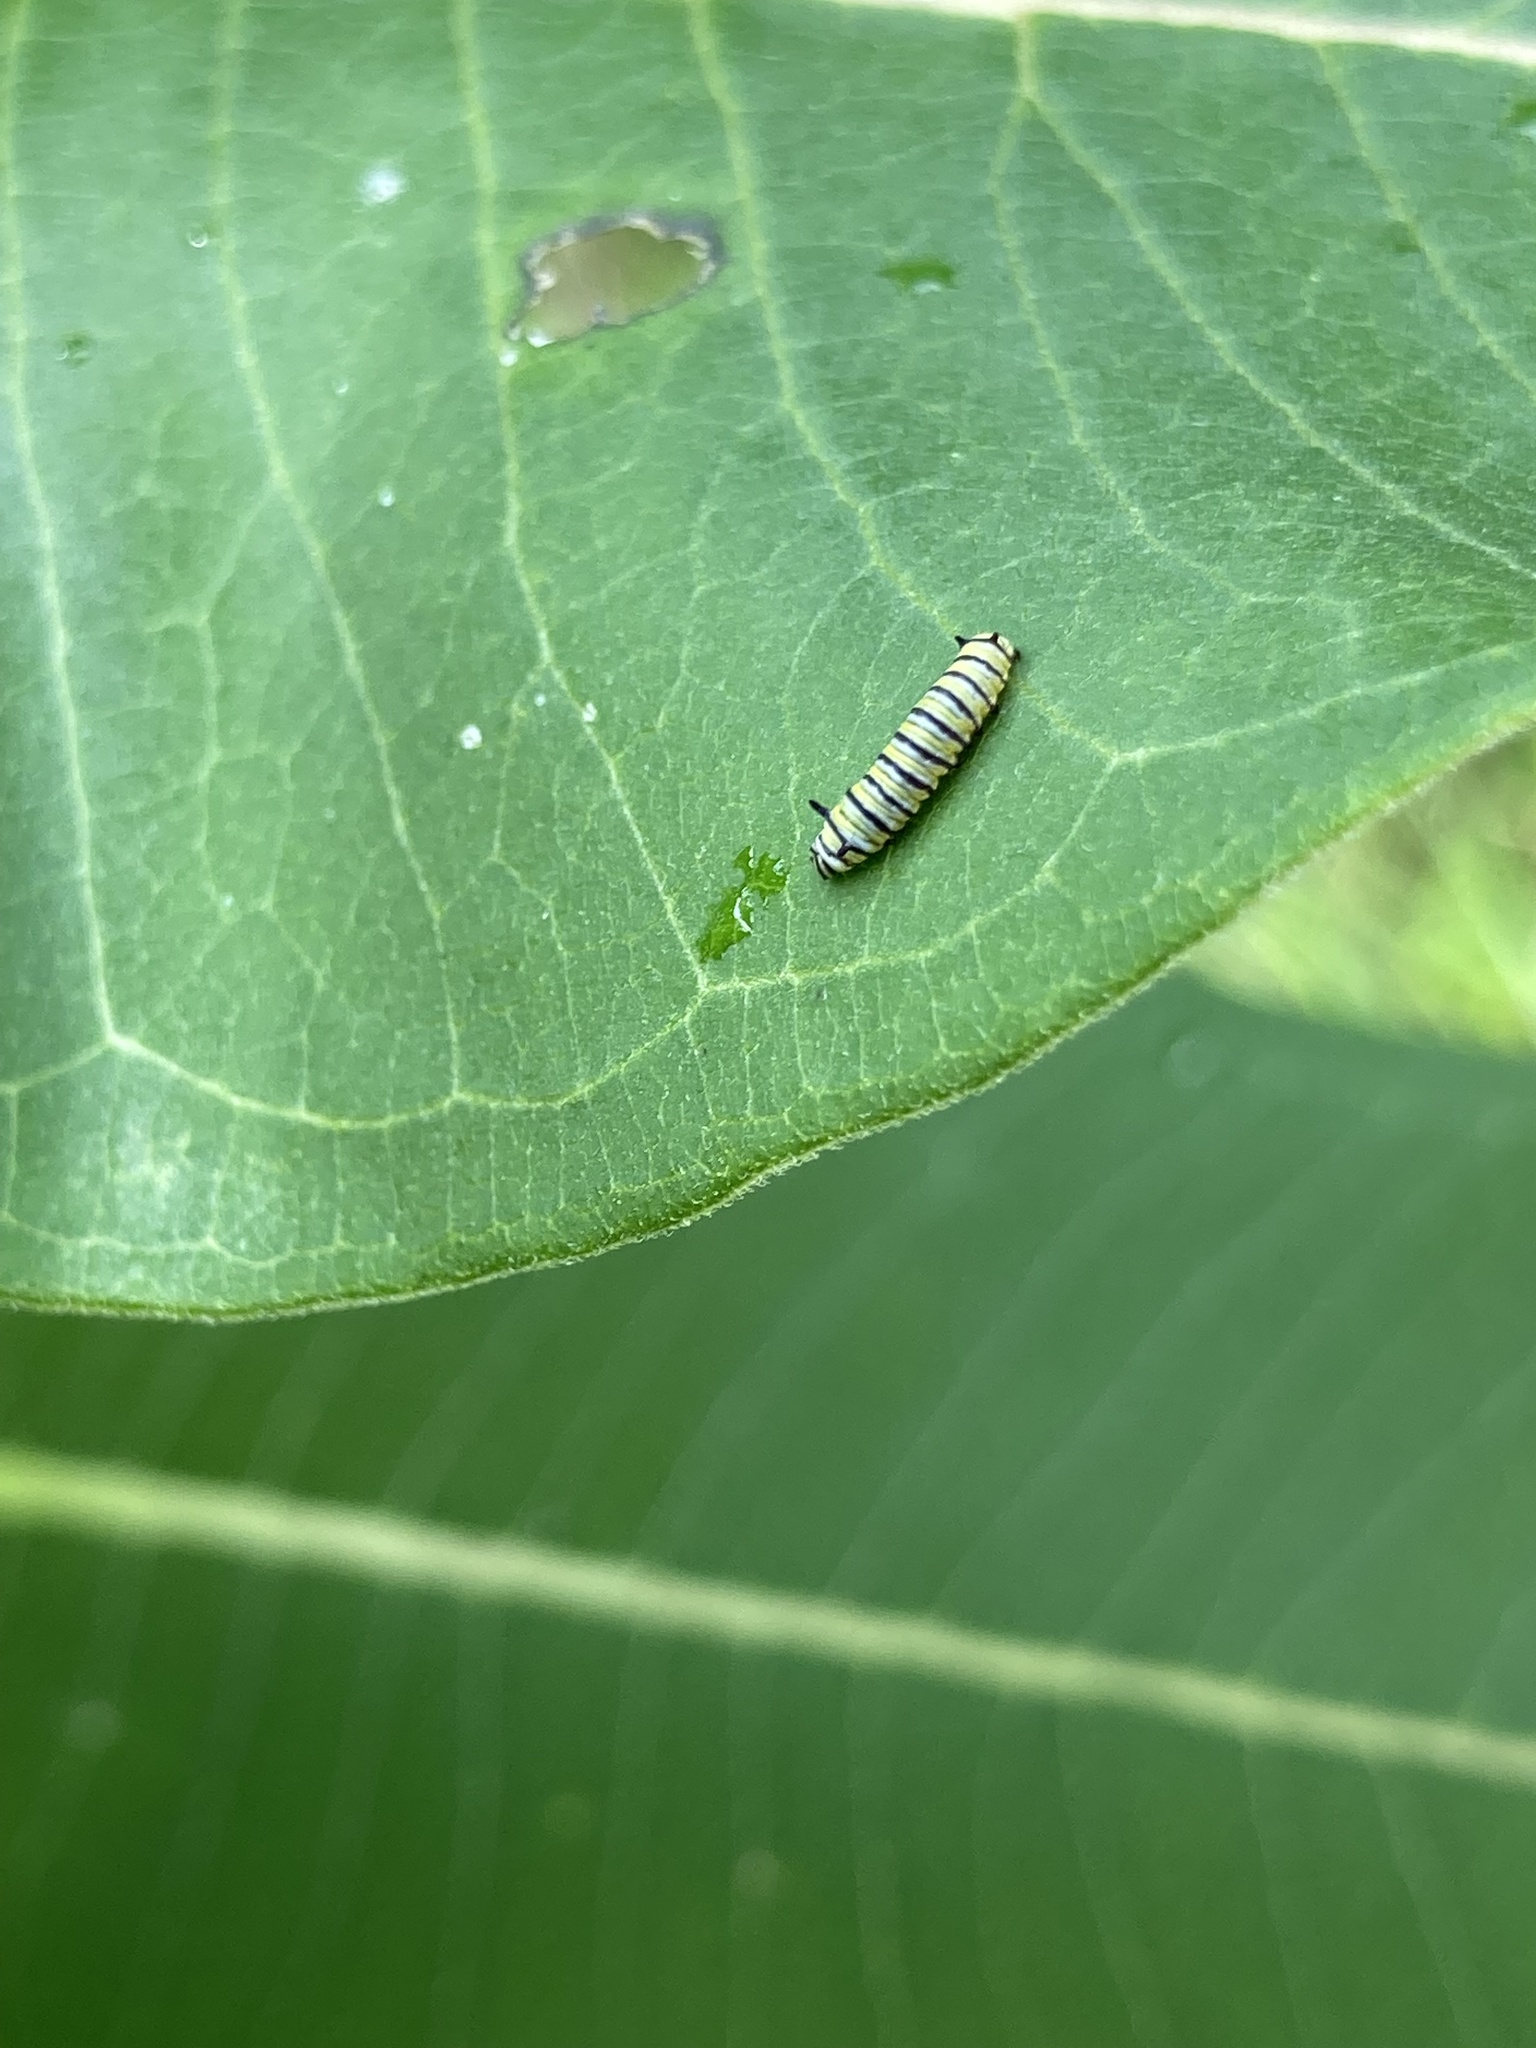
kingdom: Animalia
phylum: Arthropoda
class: Insecta
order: Lepidoptera
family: Nymphalidae
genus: Danaus
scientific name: Danaus plexippus
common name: Monarch
